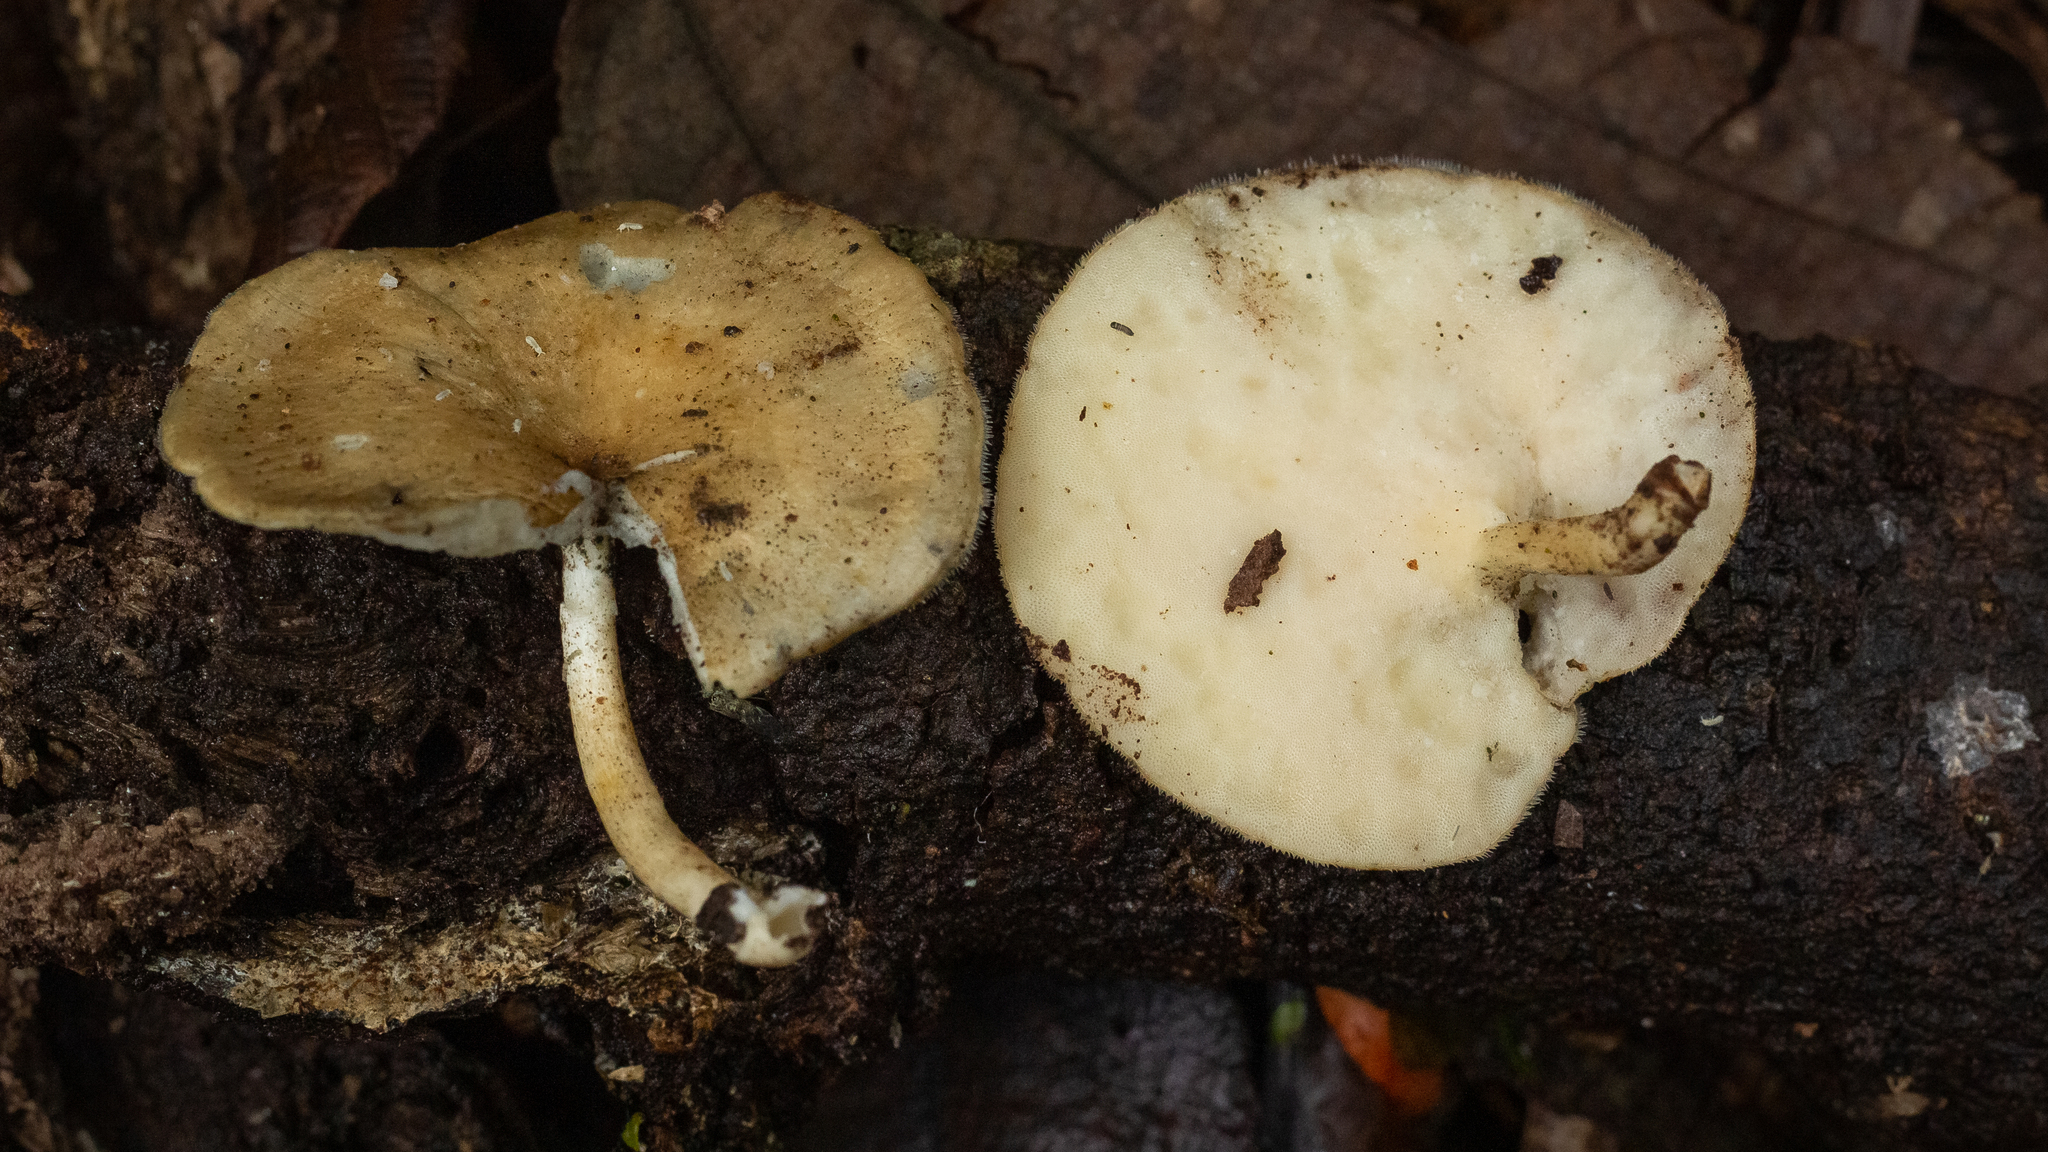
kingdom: Fungi
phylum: Basidiomycota
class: Agaricomycetes
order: Polyporales
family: Polyporaceae
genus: Lentinus
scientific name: Lentinus flexipes
